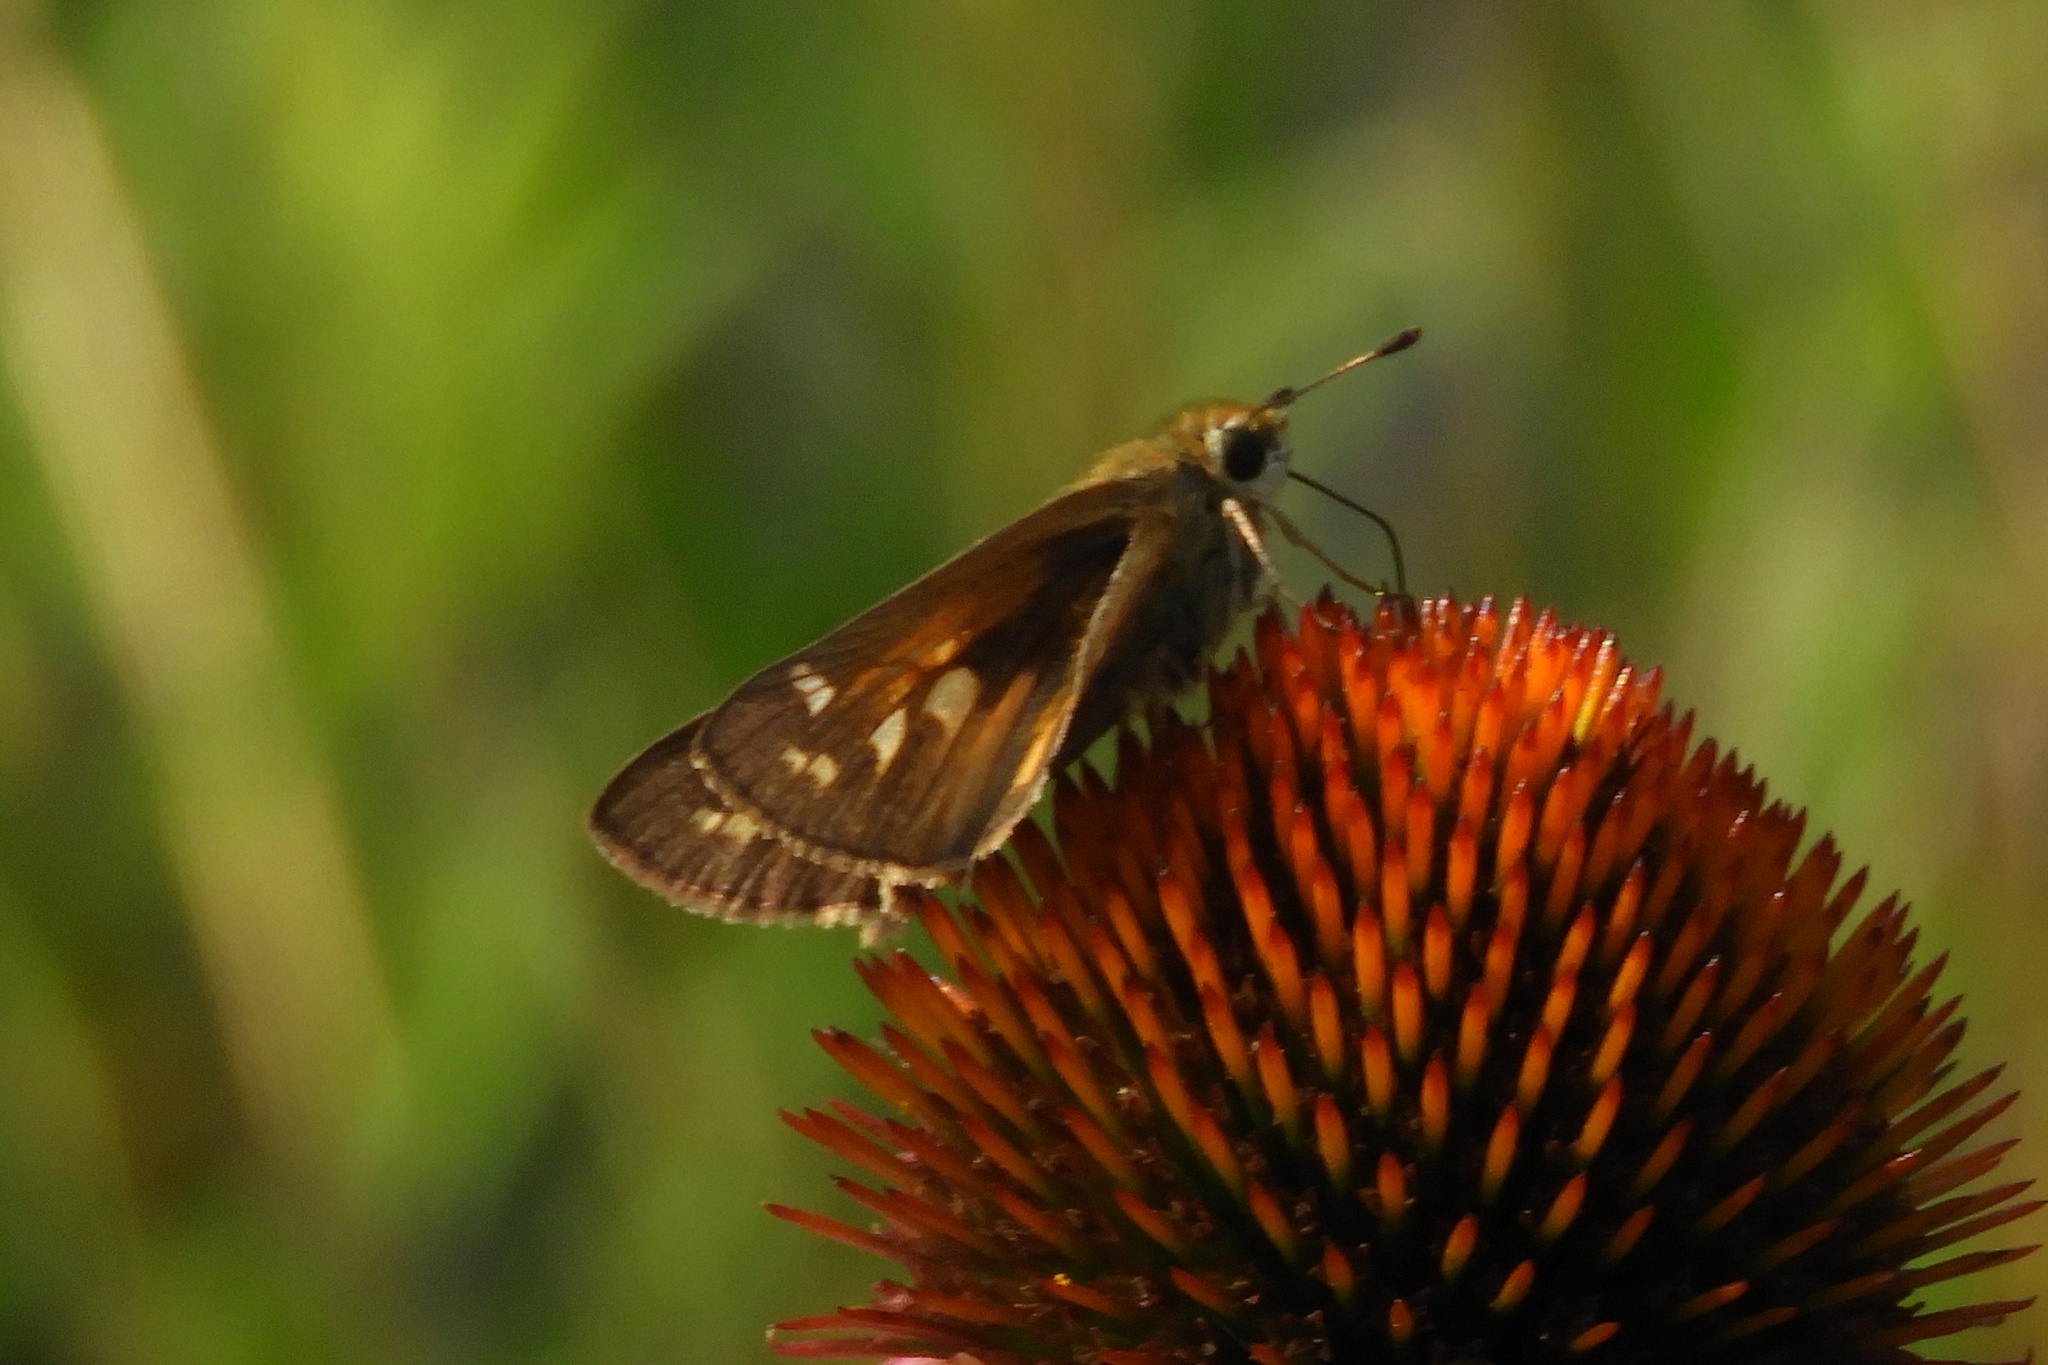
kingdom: Animalia
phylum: Arthropoda
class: Insecta
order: Lepidoptera
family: Hesperiidae
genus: Atalopedes
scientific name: Atalopedes
